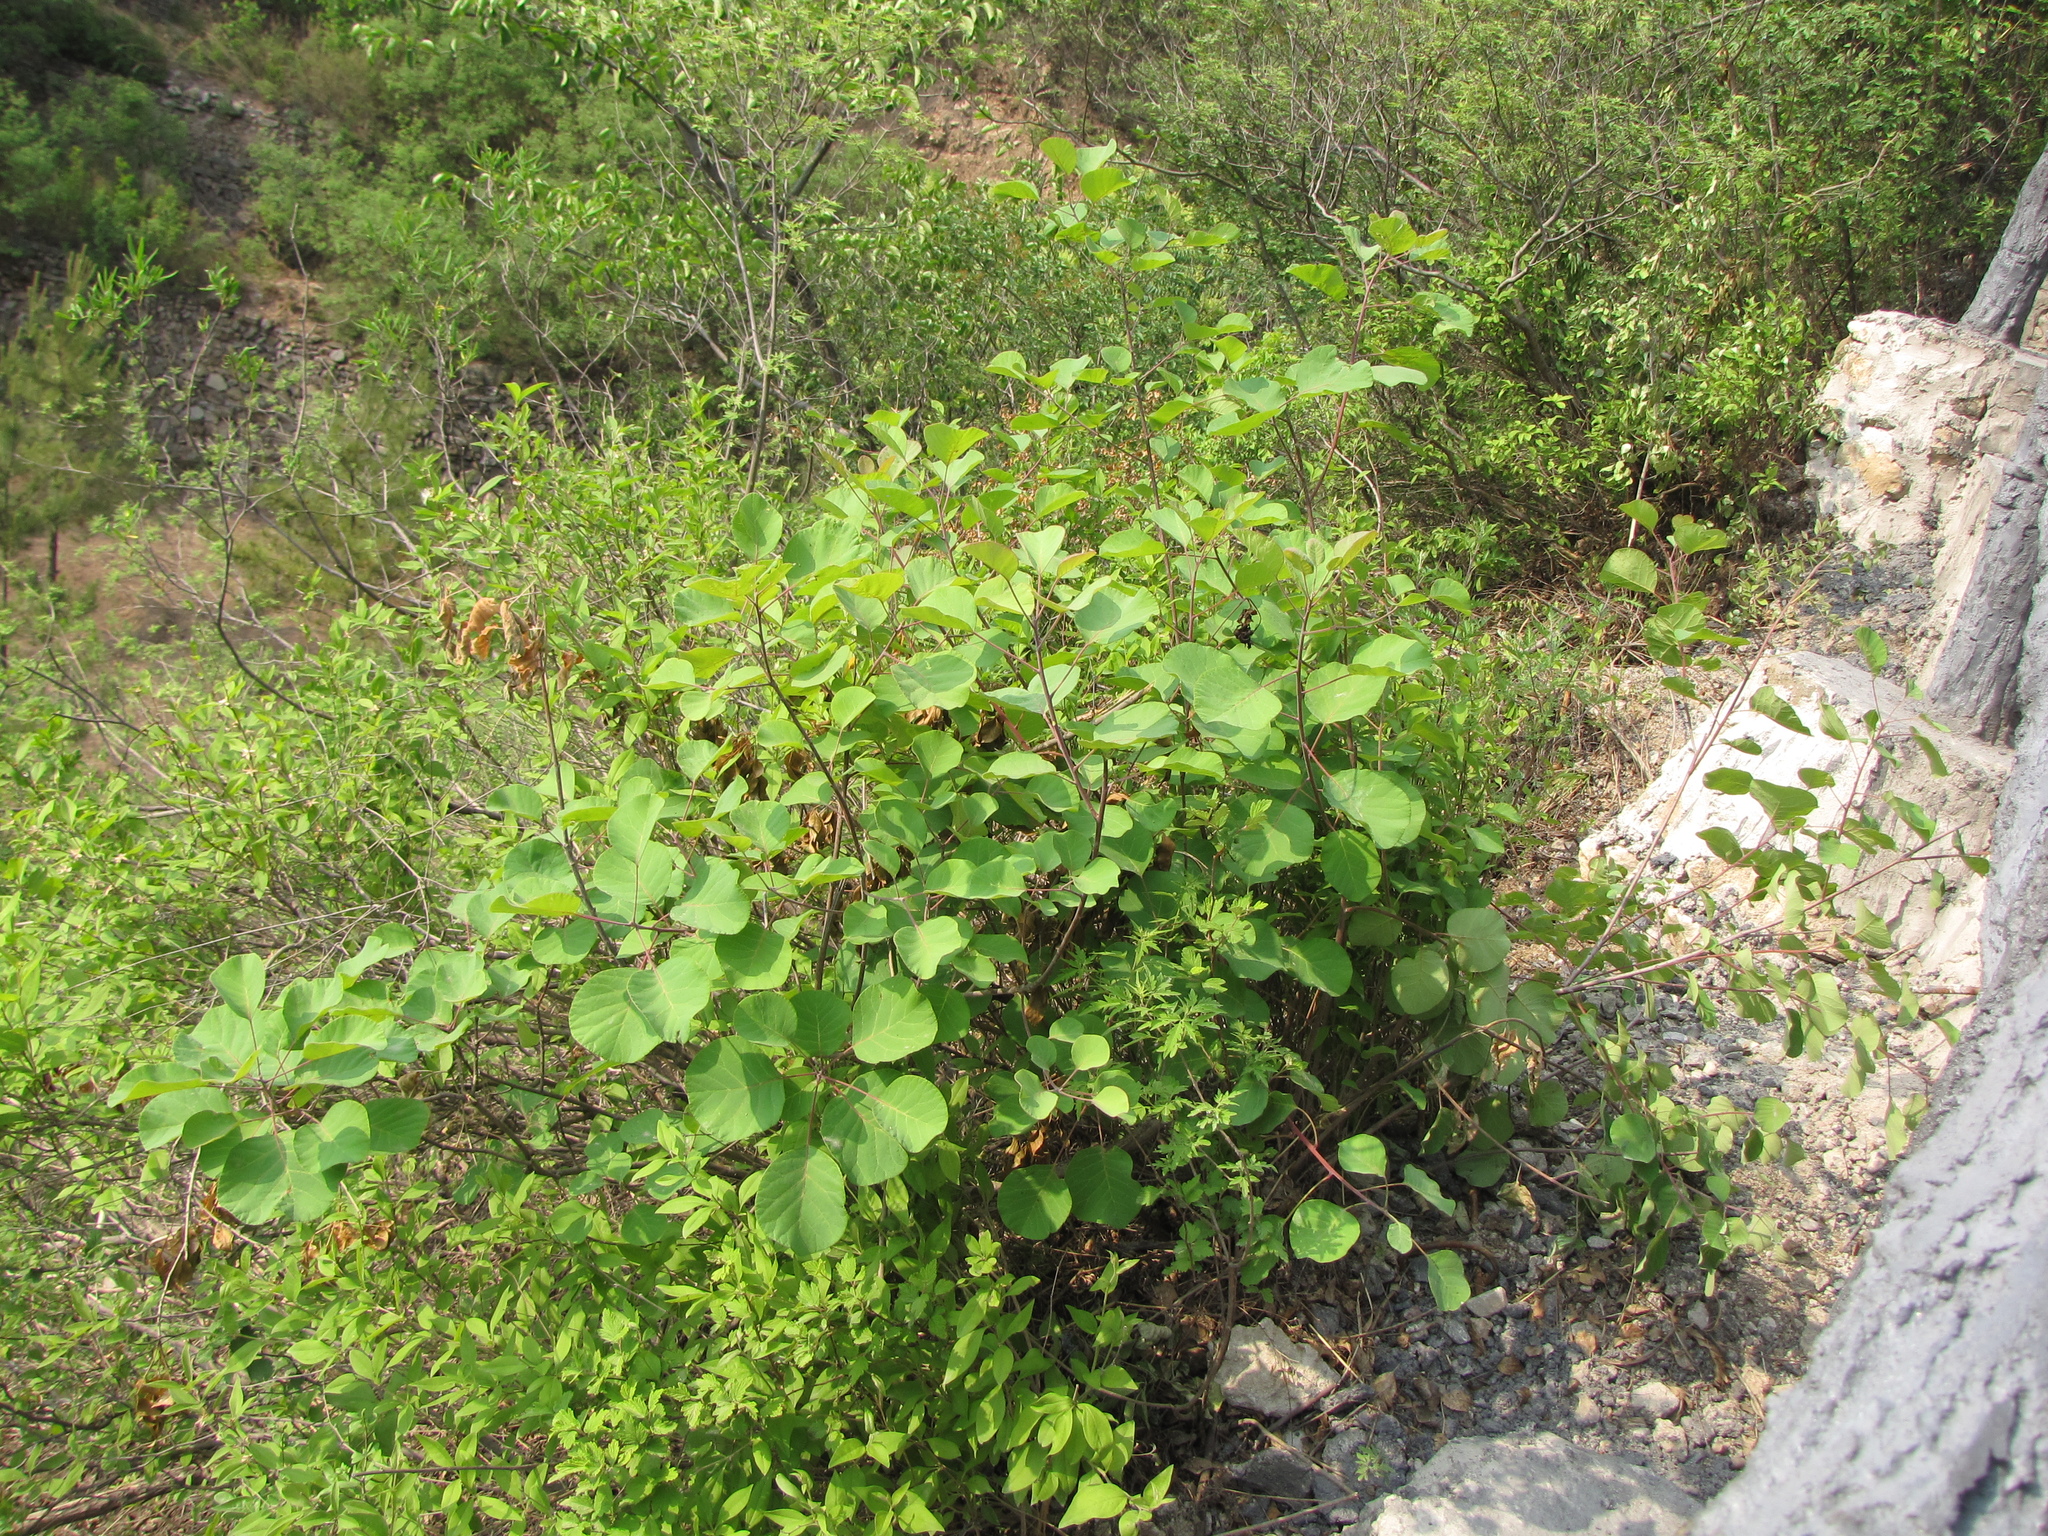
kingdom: Plantae
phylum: Tracheophyta
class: Magnoliopsida
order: Sapindales
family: Anacardiaceae
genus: Cotinus
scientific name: Cotinus coggygria
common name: Smoke-tree
